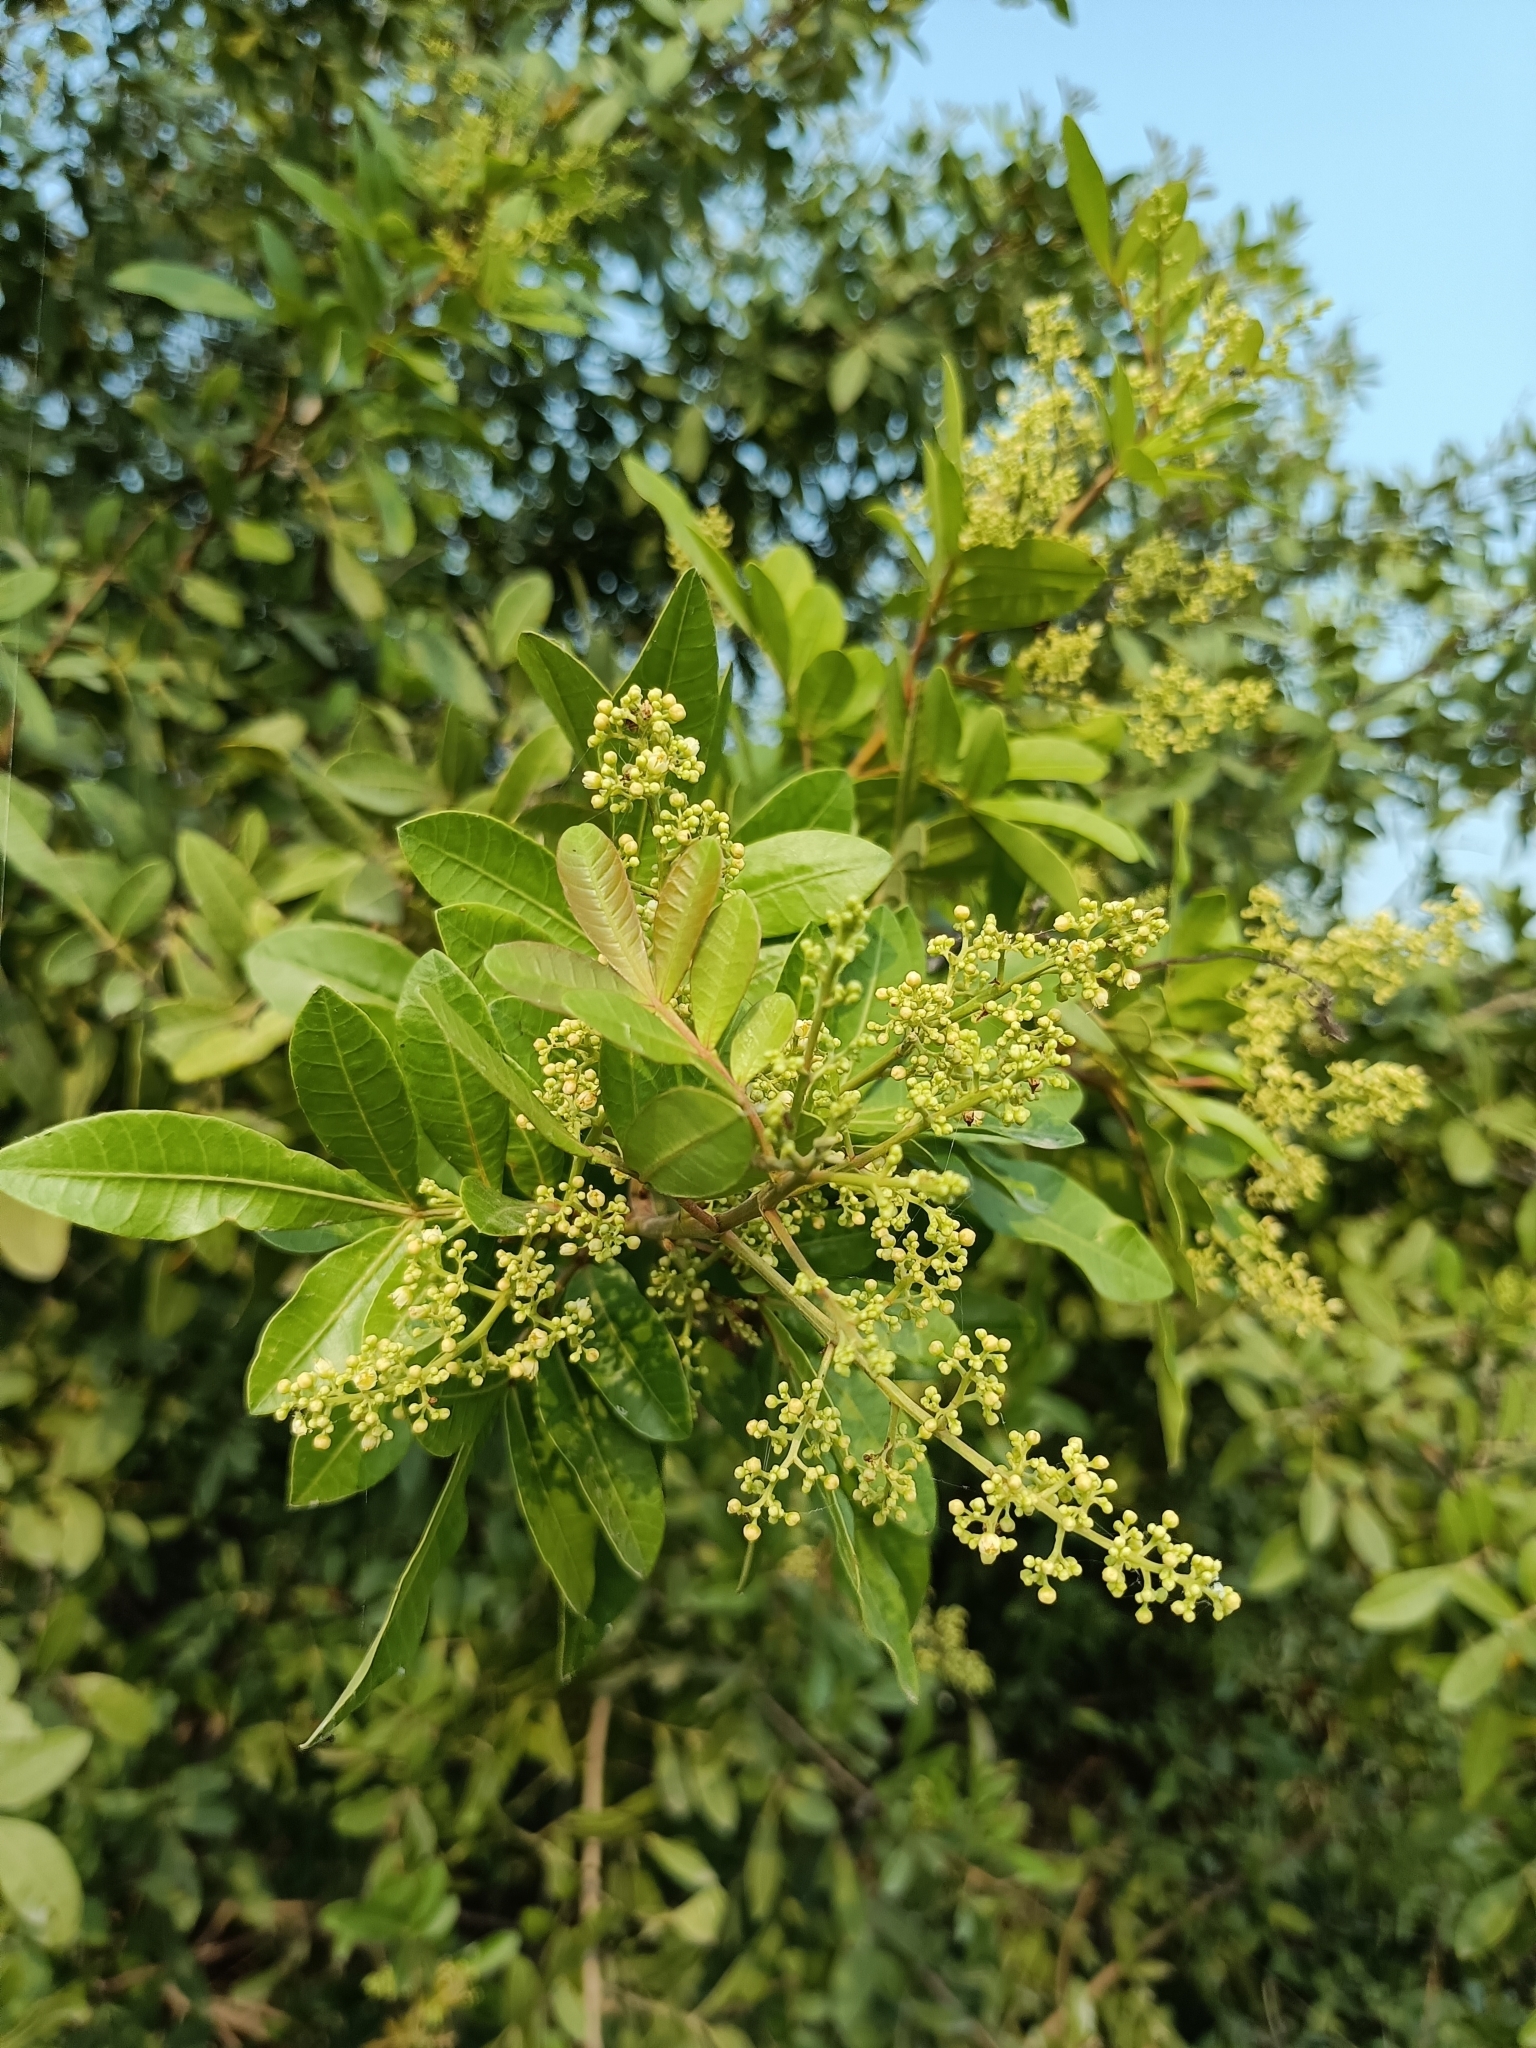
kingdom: Plantae
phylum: Tracheophyta
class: Magnoliopsida
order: Sapindales
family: Anacardiaceae
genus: Schinus
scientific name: Schinus terebinthifolia
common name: Brazilian peppertree
